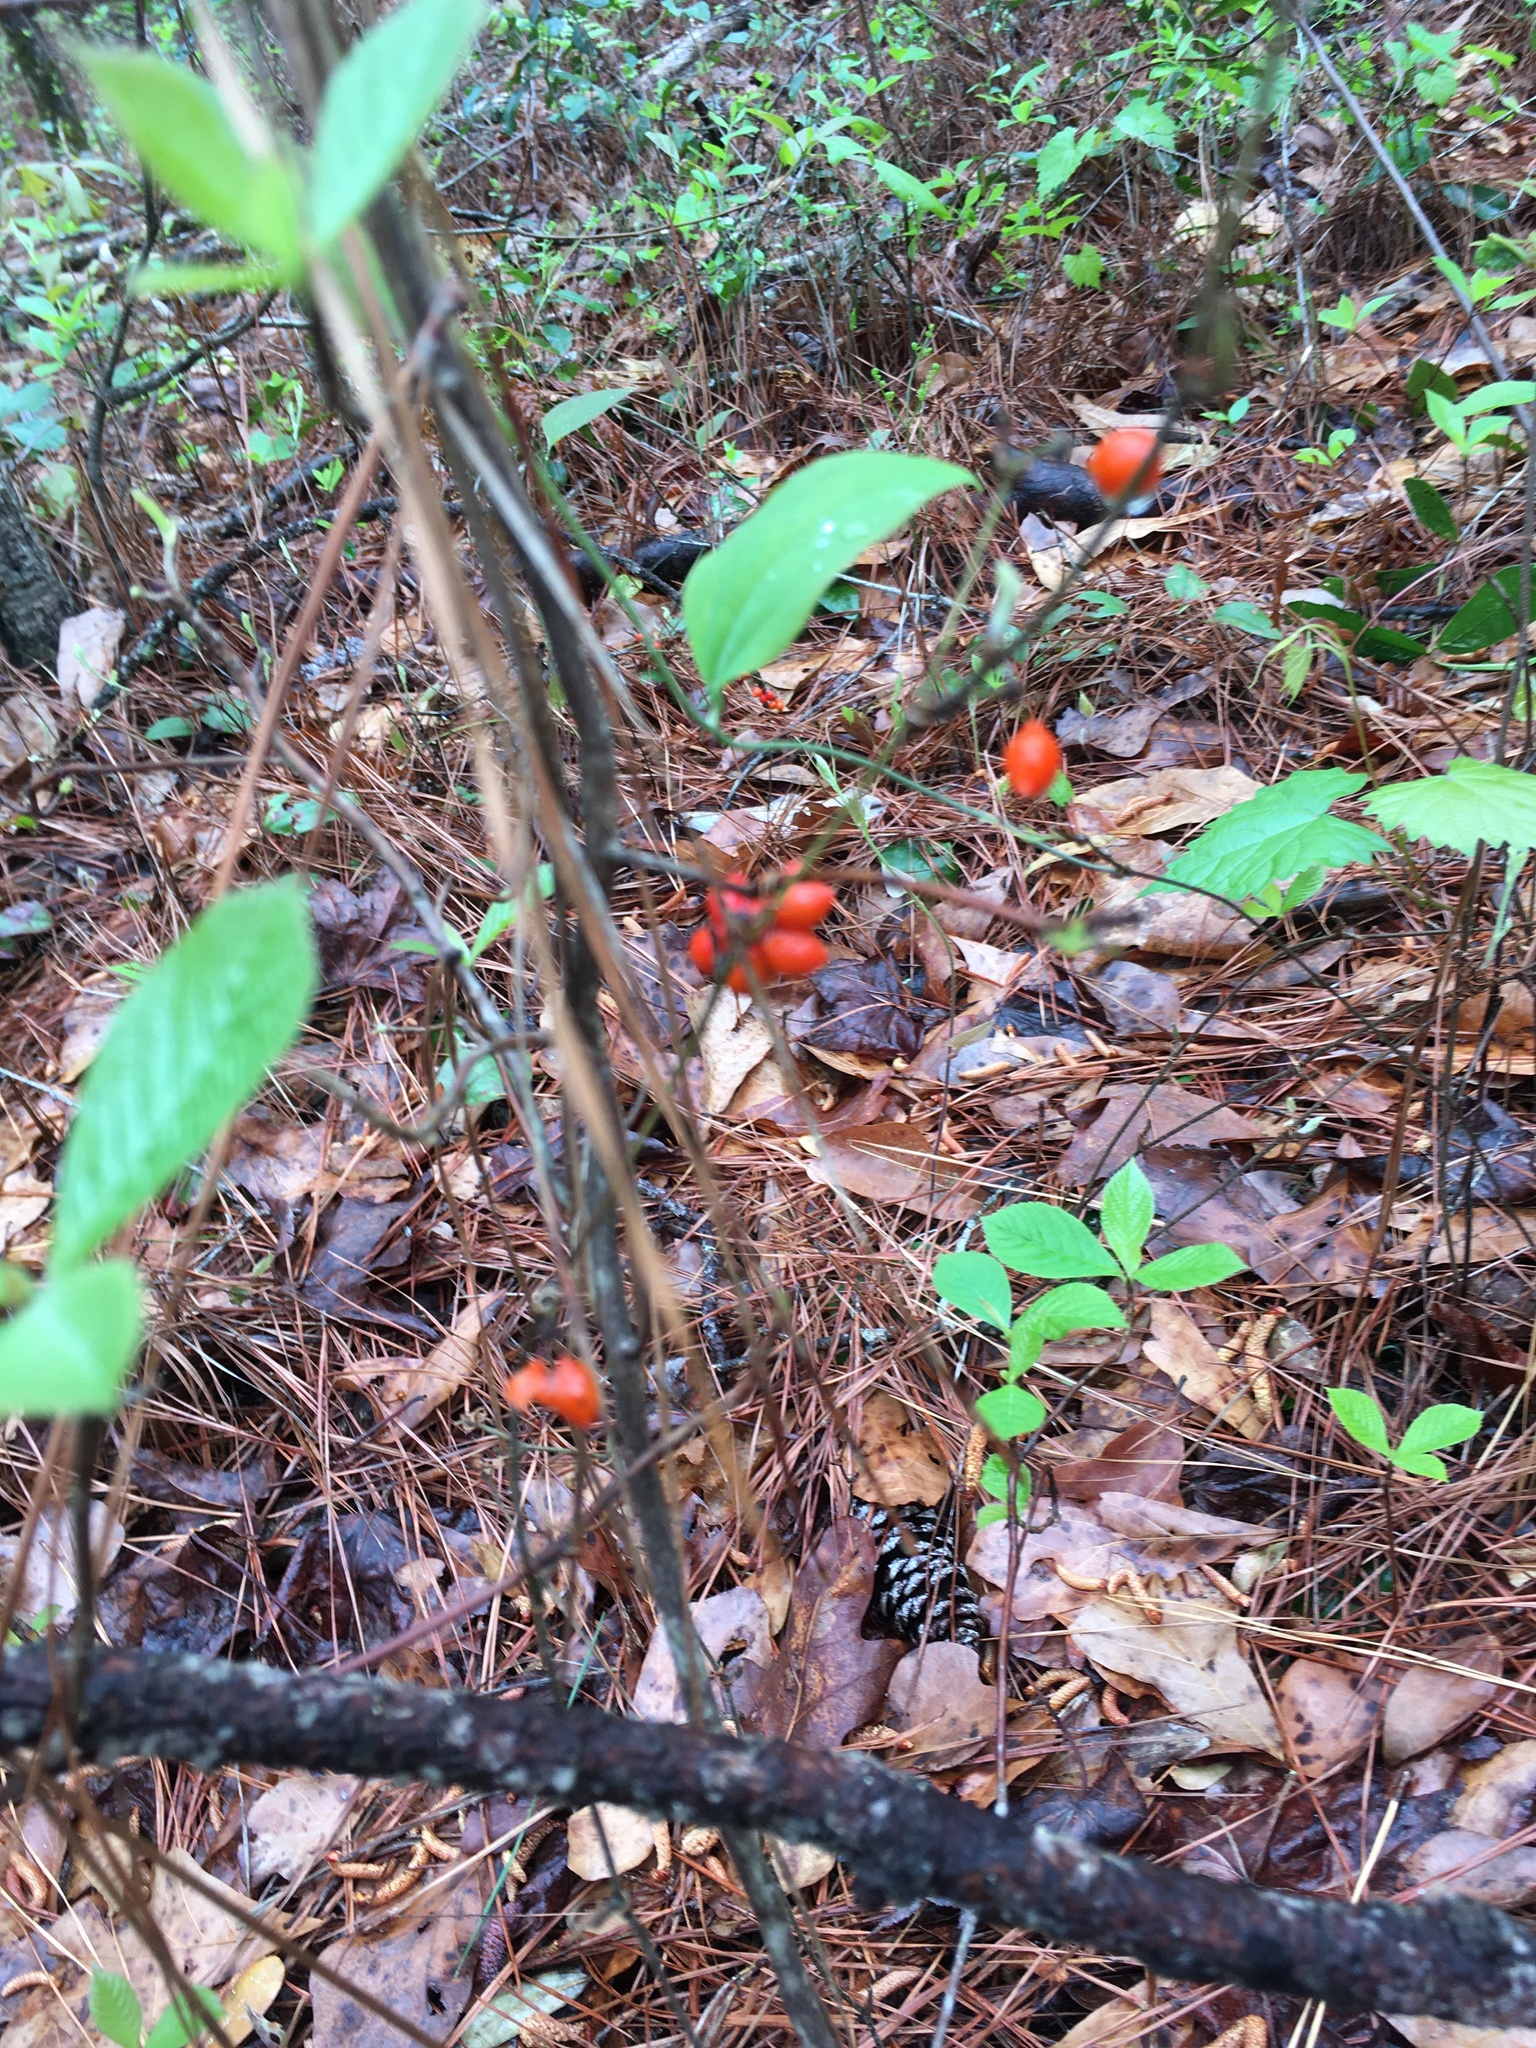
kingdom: Plantae
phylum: Tracheophyta
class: Liliopsida
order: Liliales
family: Smilacaceae
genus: Smilax
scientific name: Smilax pumila
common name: Sarsaparilla-vine
